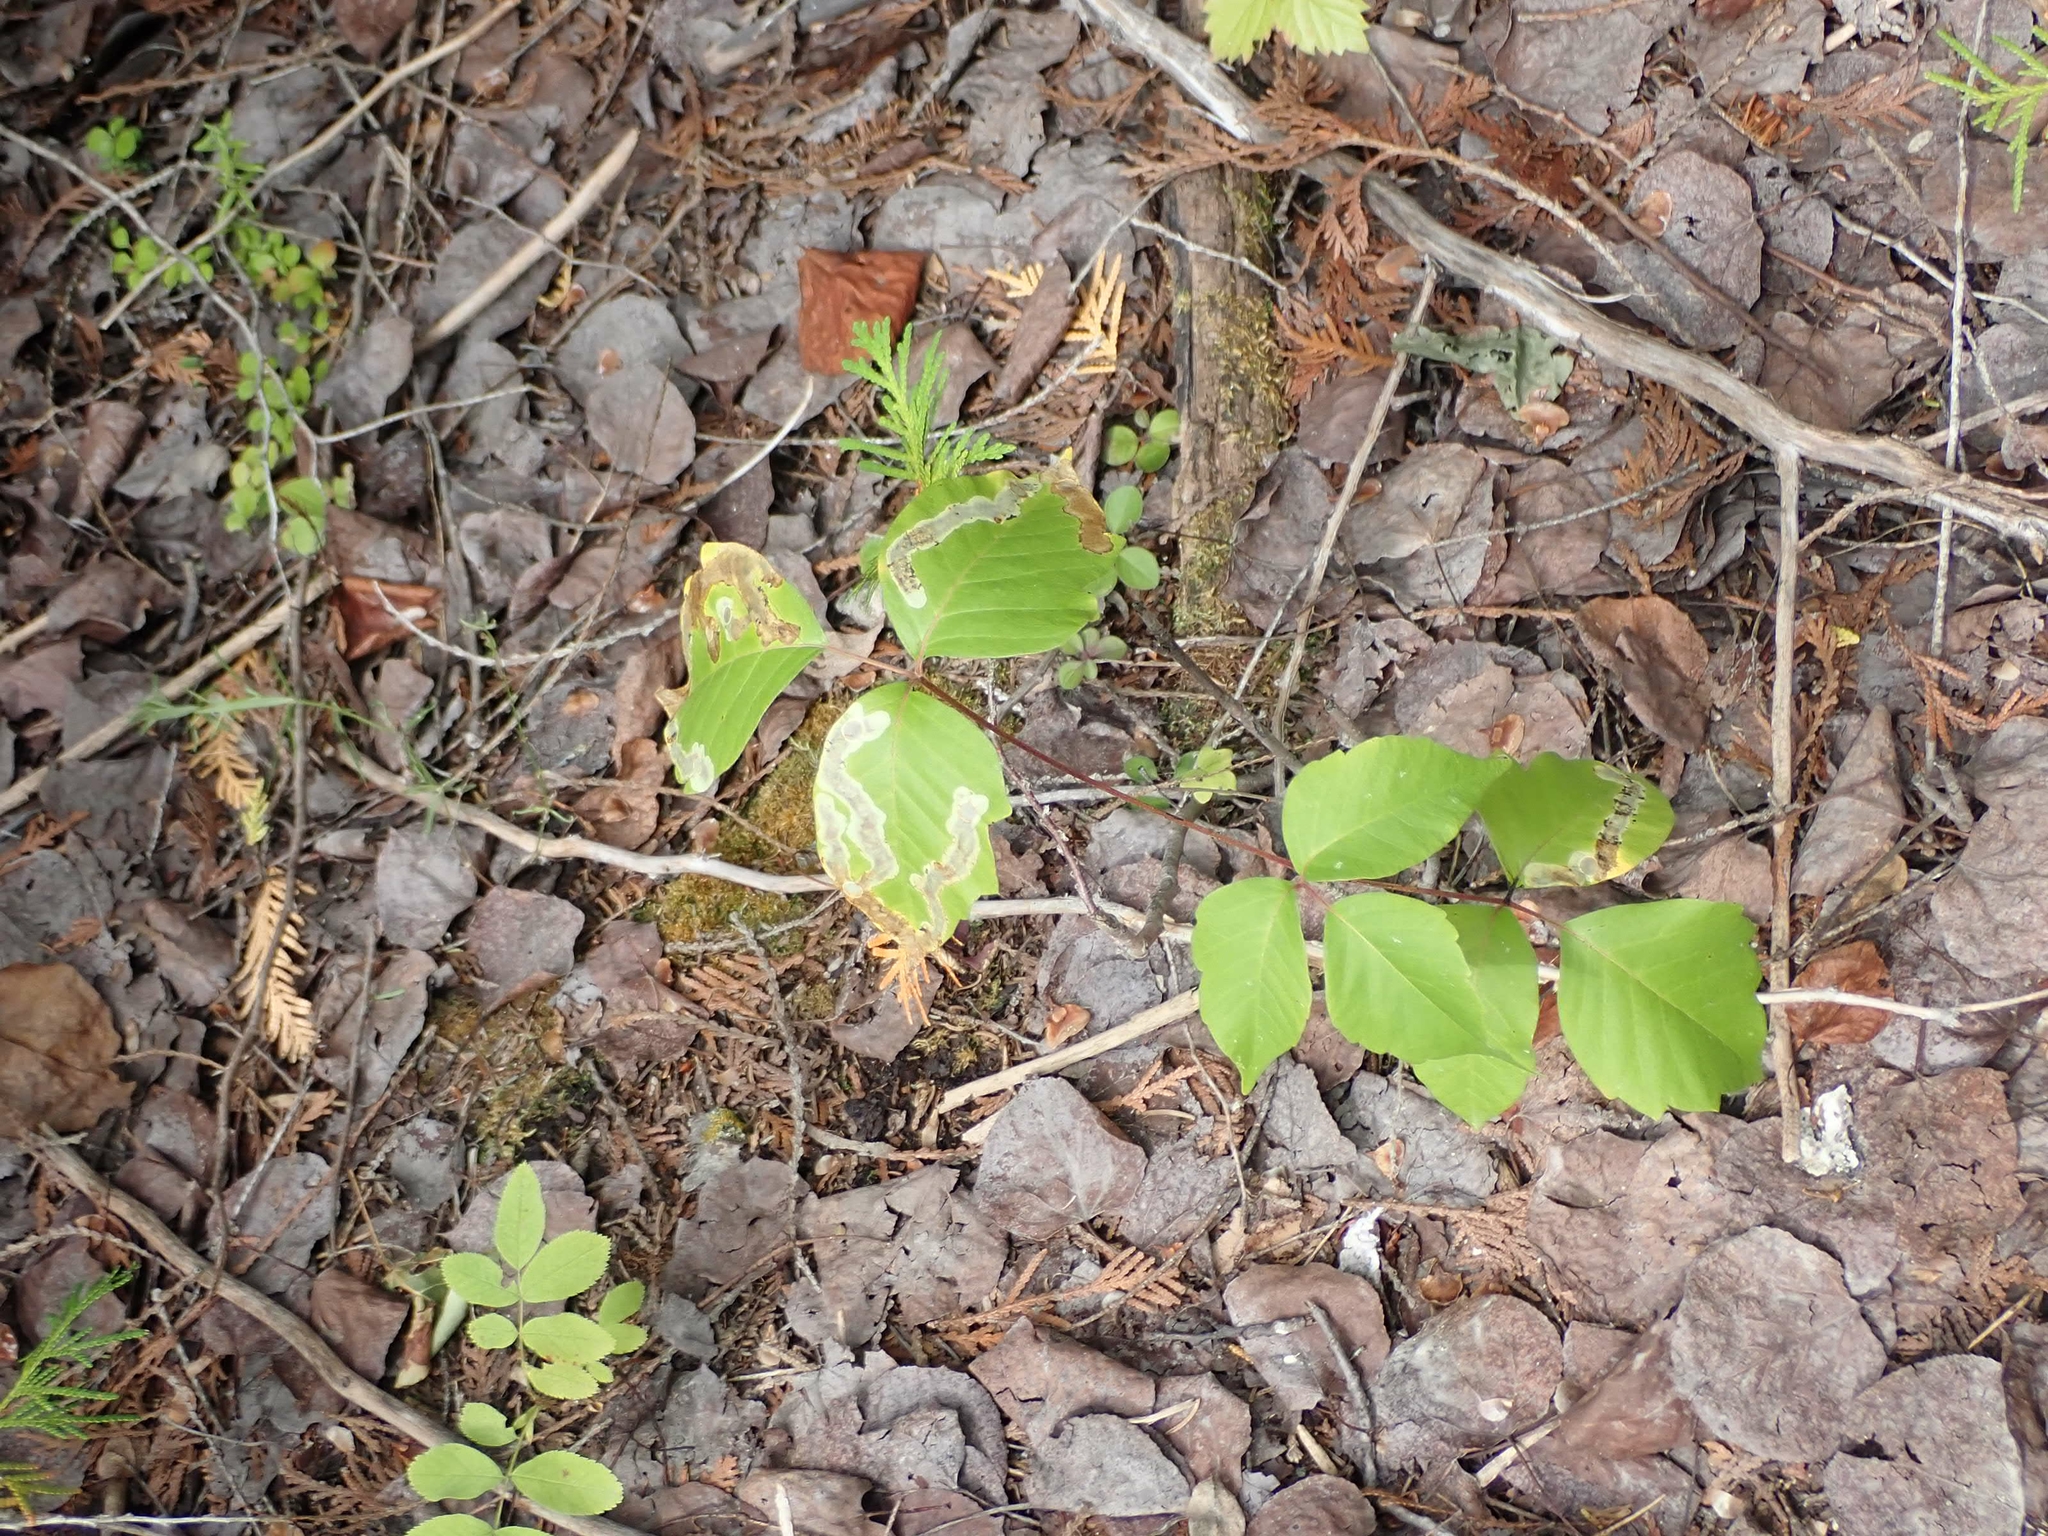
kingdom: Plantae
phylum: Tracheophyta
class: Magnoliopsida
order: Sapindales
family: Anacardiaceae
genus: Toxicodendron
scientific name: Toxicodendron rydbergii
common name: Rydberg's poison-ivy
